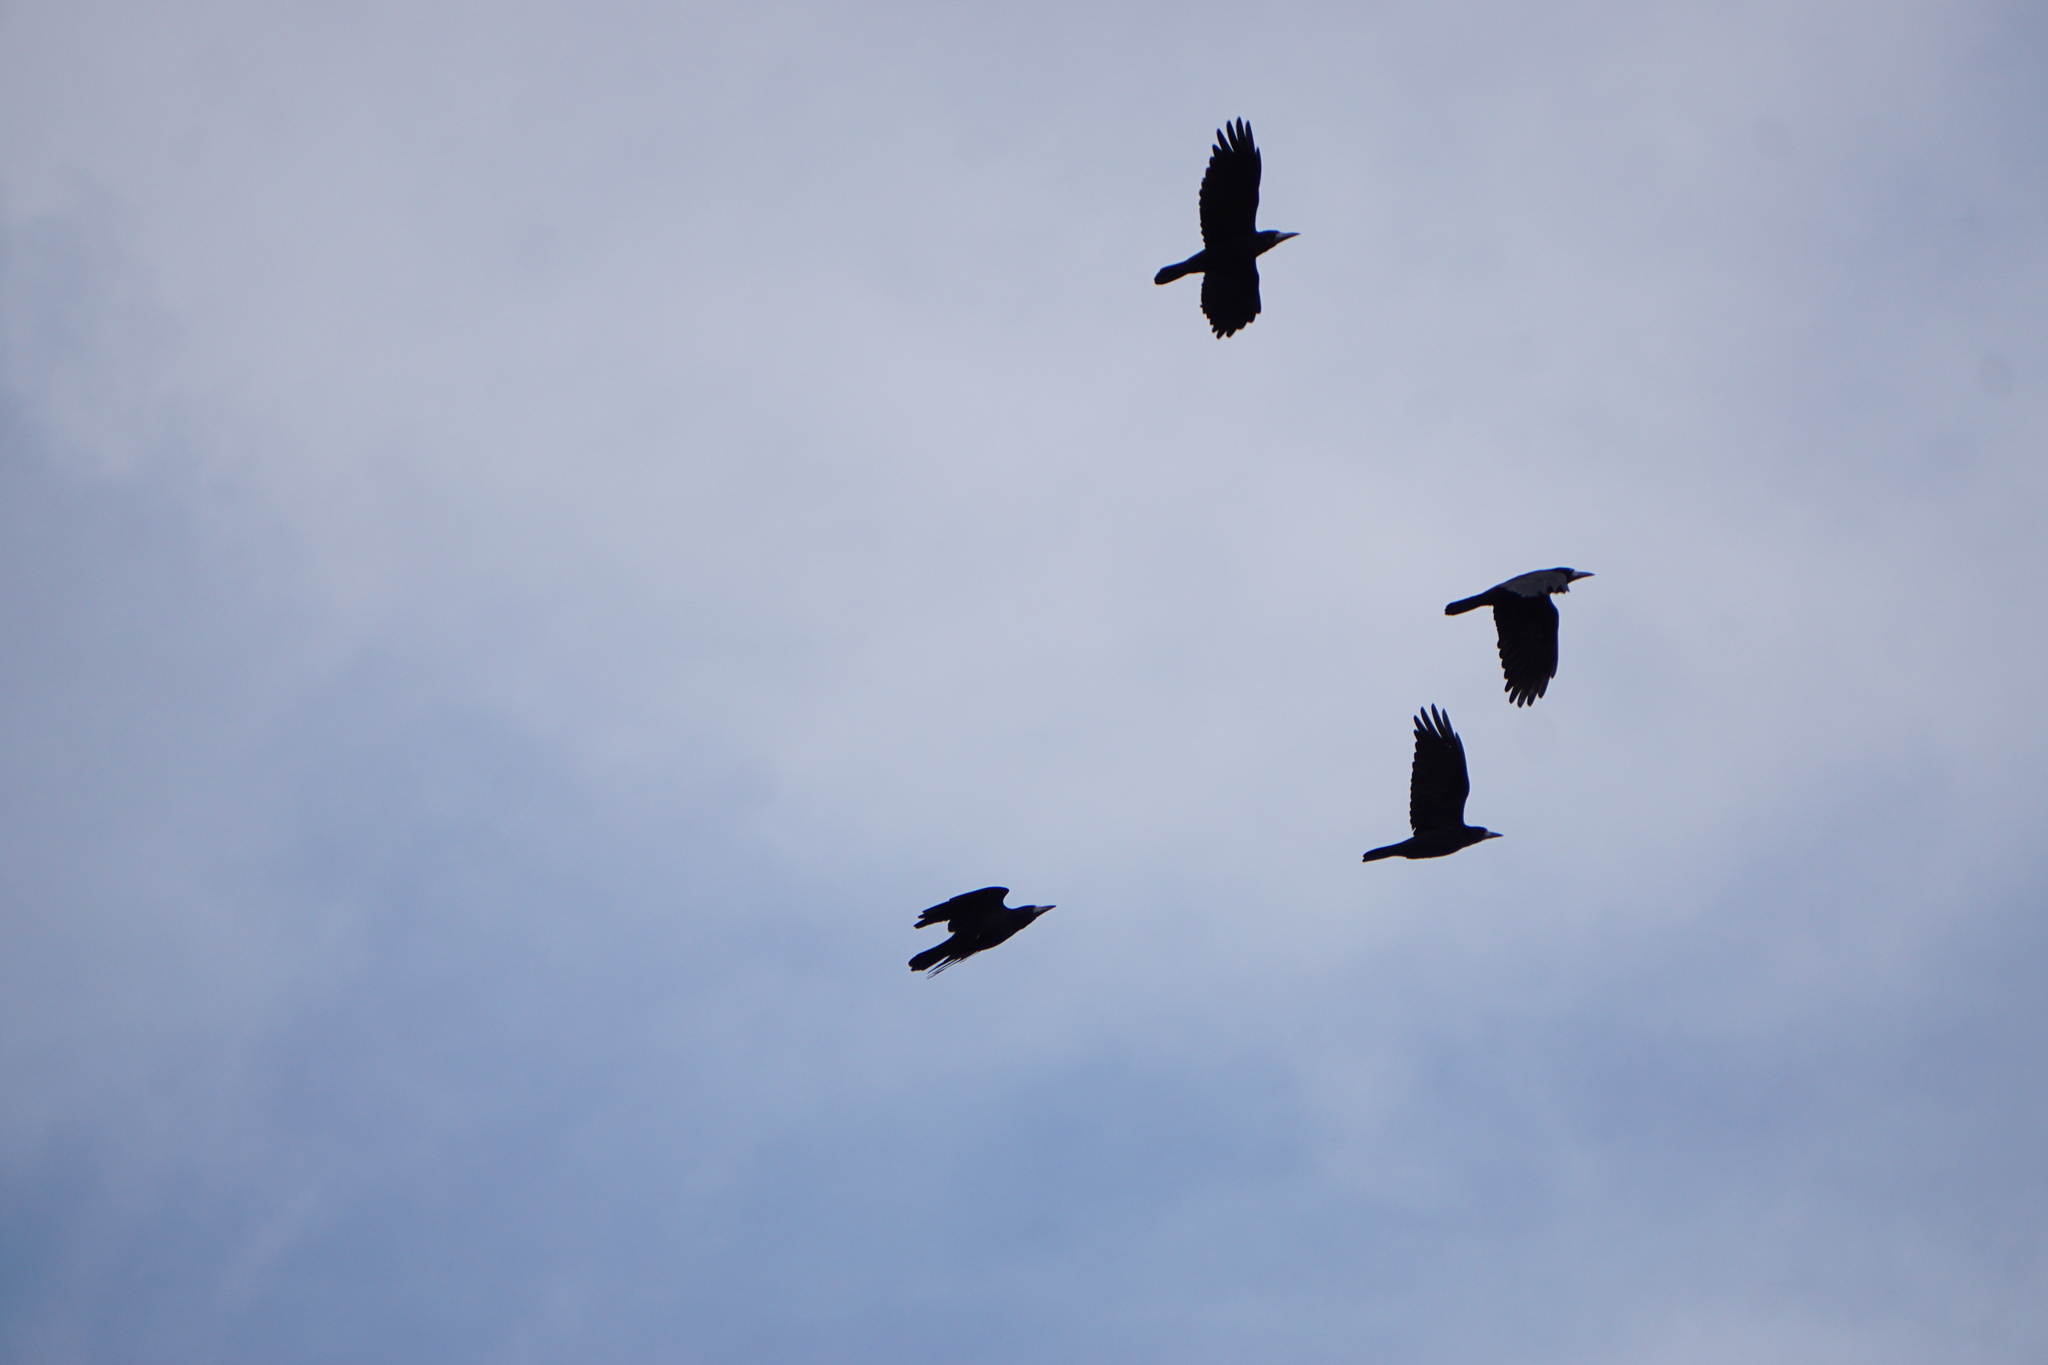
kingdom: Animalia
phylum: Chordata
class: Aves
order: Passeriformes
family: Corvidae
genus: Corvus
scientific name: Corvus frugilegus
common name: Rook
